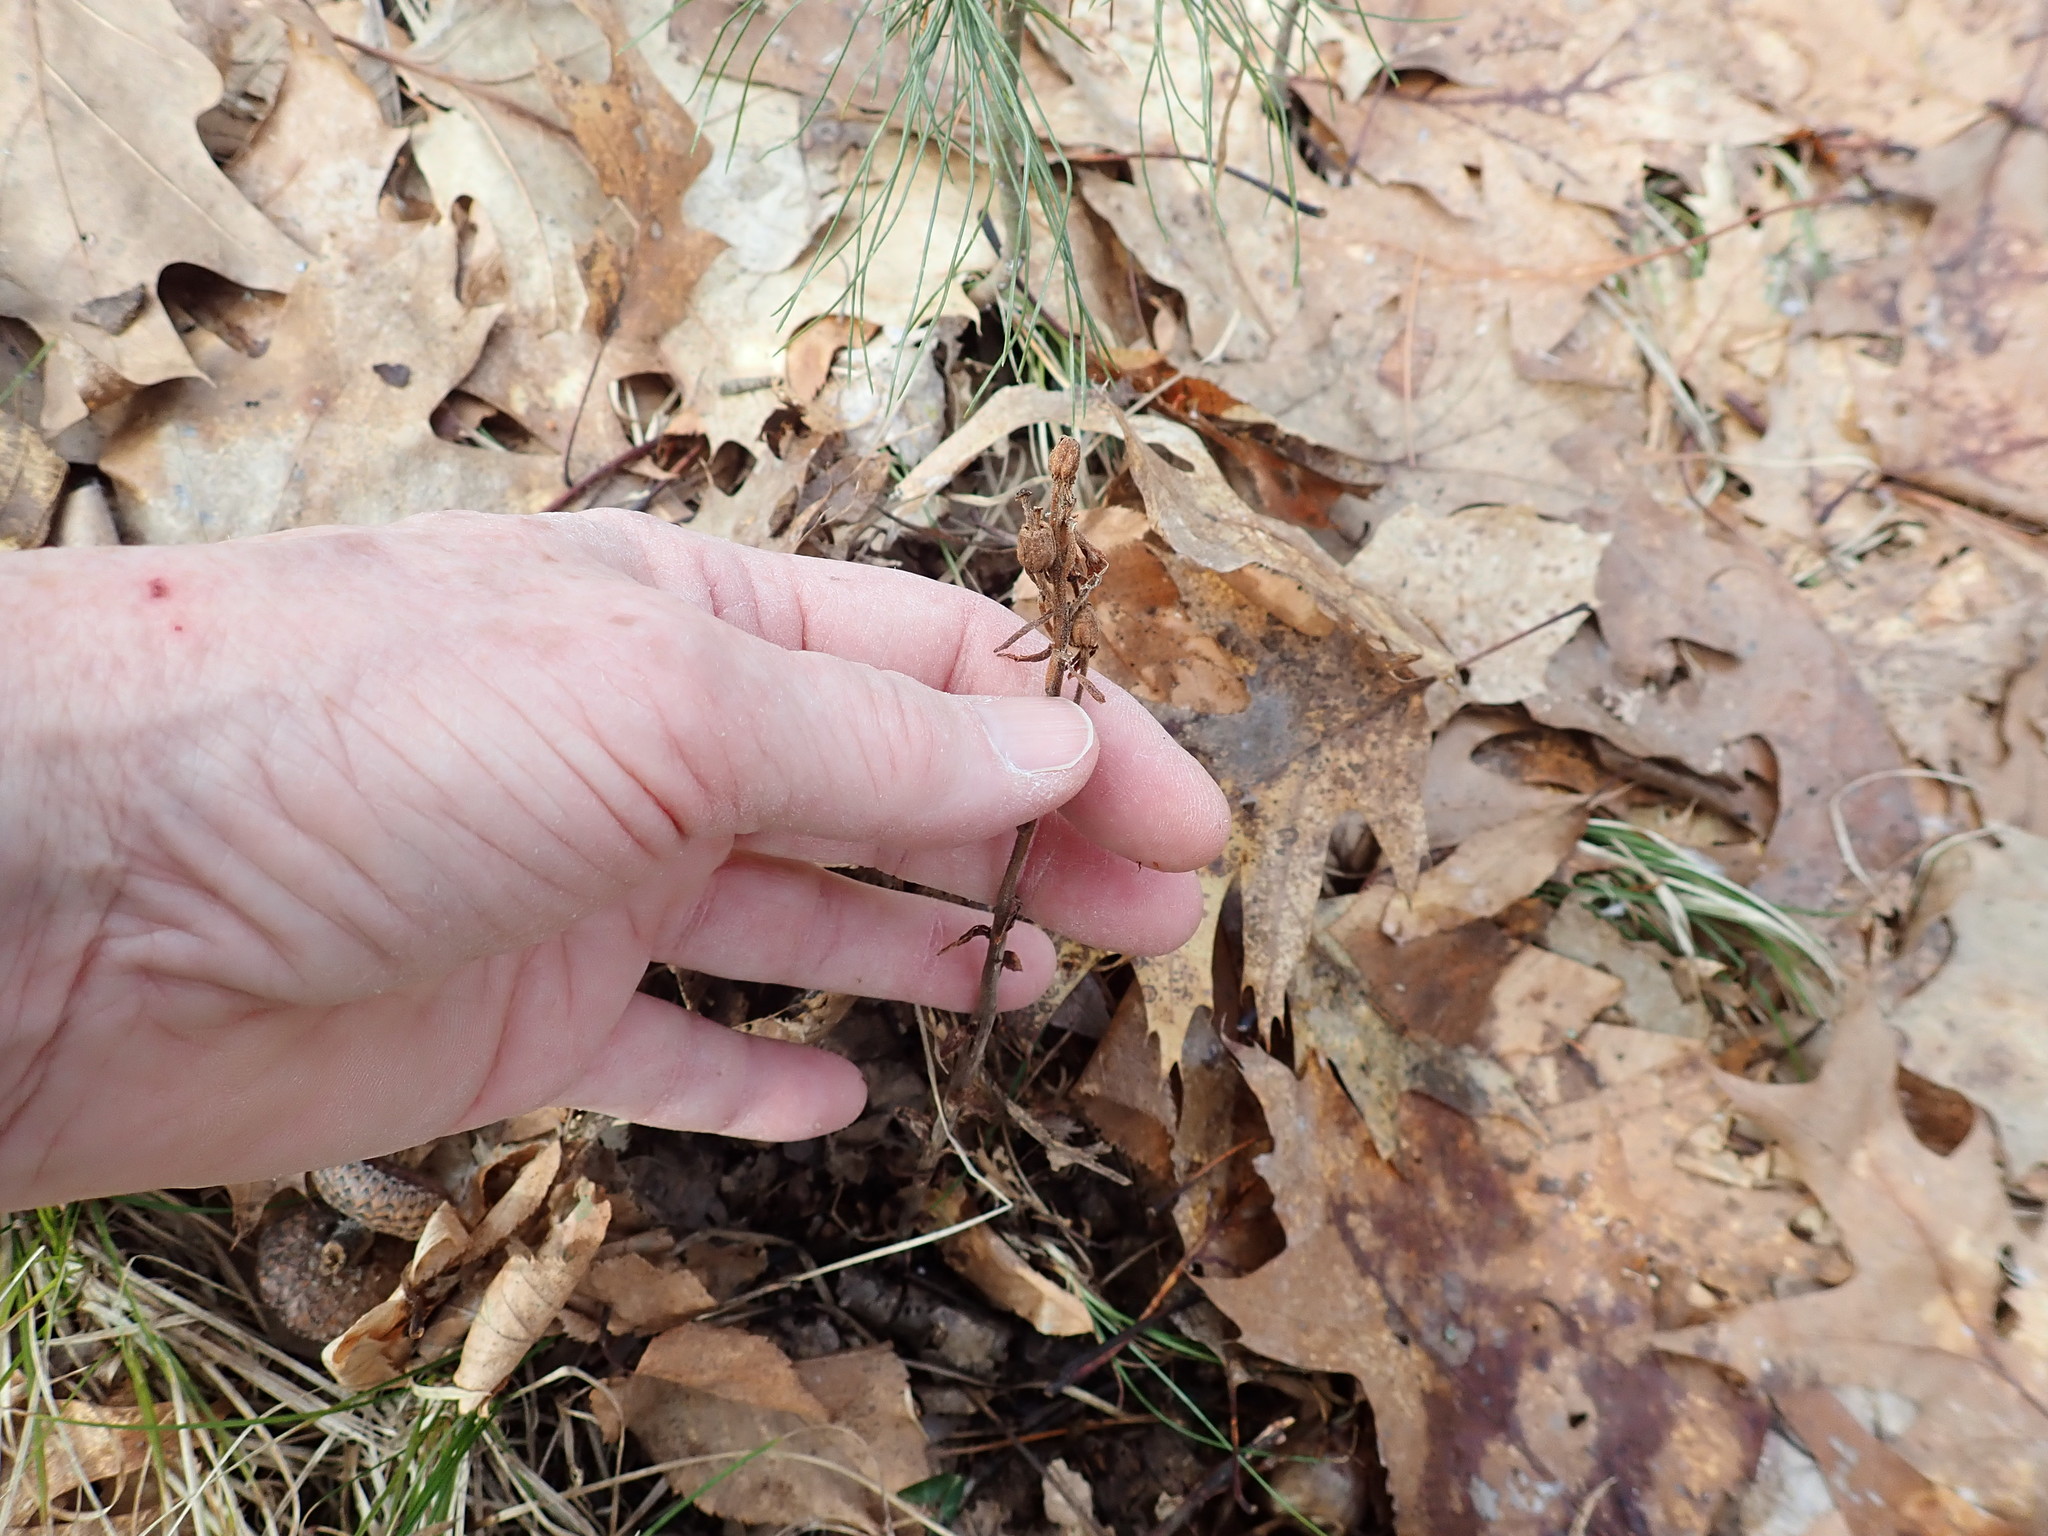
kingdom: Plantae
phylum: Tracheophyta
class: Magnoliopsida
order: Ericales
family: Ericaceae
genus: Hypopitys
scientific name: Hypopitys monotropa
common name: Yellow bird's-nest
